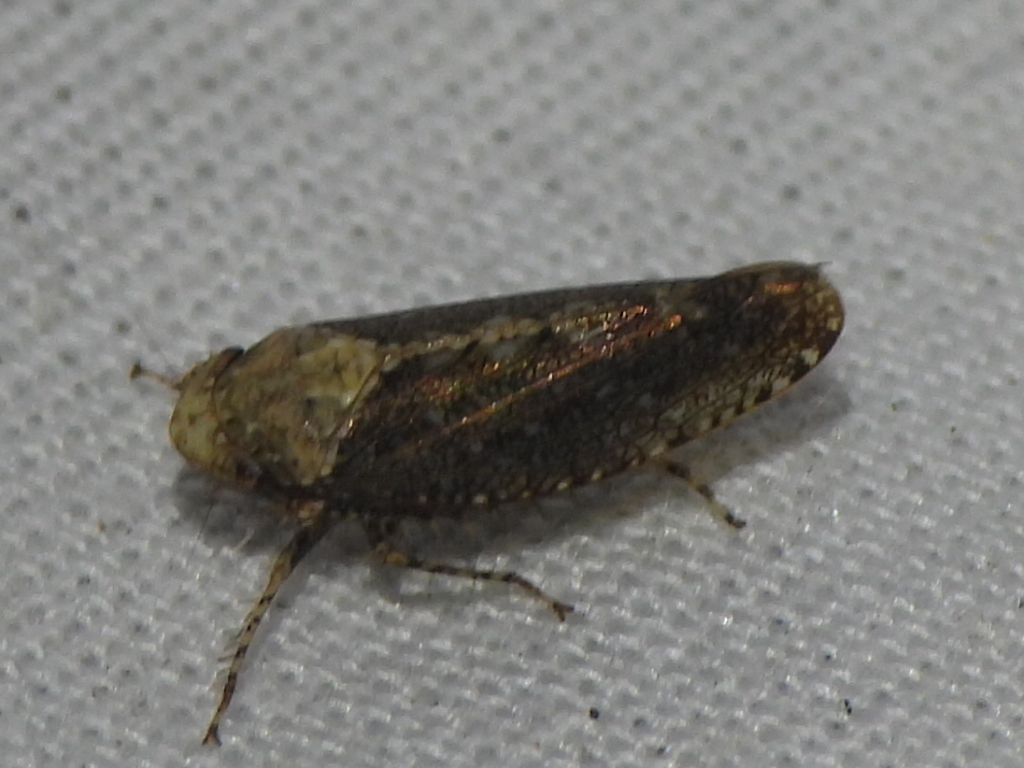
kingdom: Animalia
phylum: Arthropoda
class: Insecta
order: Hemiptera
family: Cicadellidae
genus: Excultanus
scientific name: Excultanus excultus
